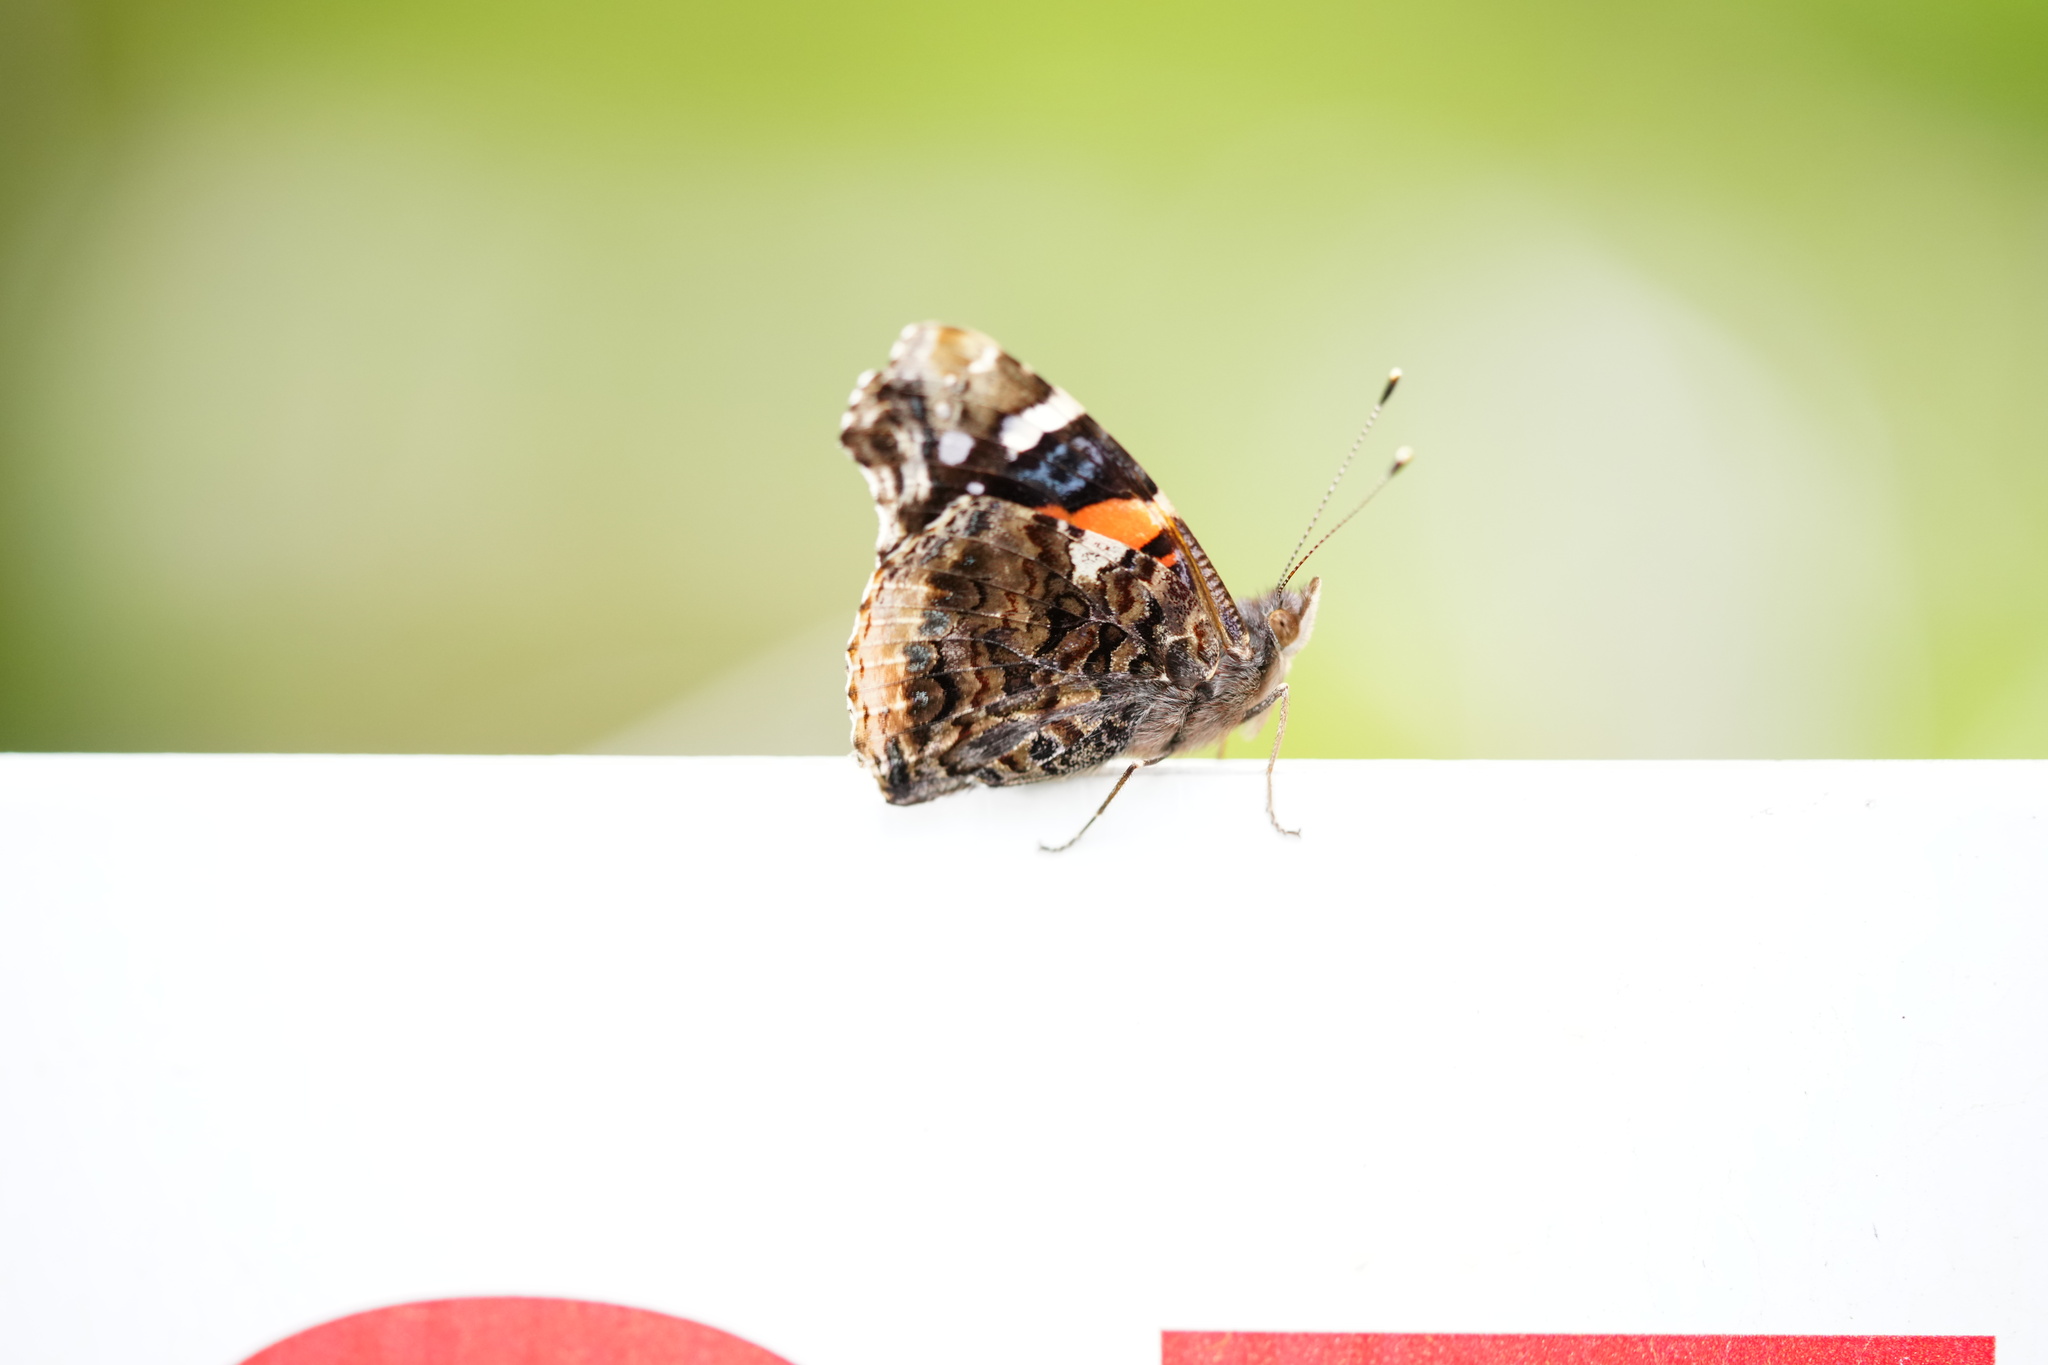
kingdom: Animalia
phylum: Arthropoda
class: Insecta
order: Lepidoptera
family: Nymphalidae
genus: Vanessa
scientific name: Vanessa atalanta
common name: Red admiral
